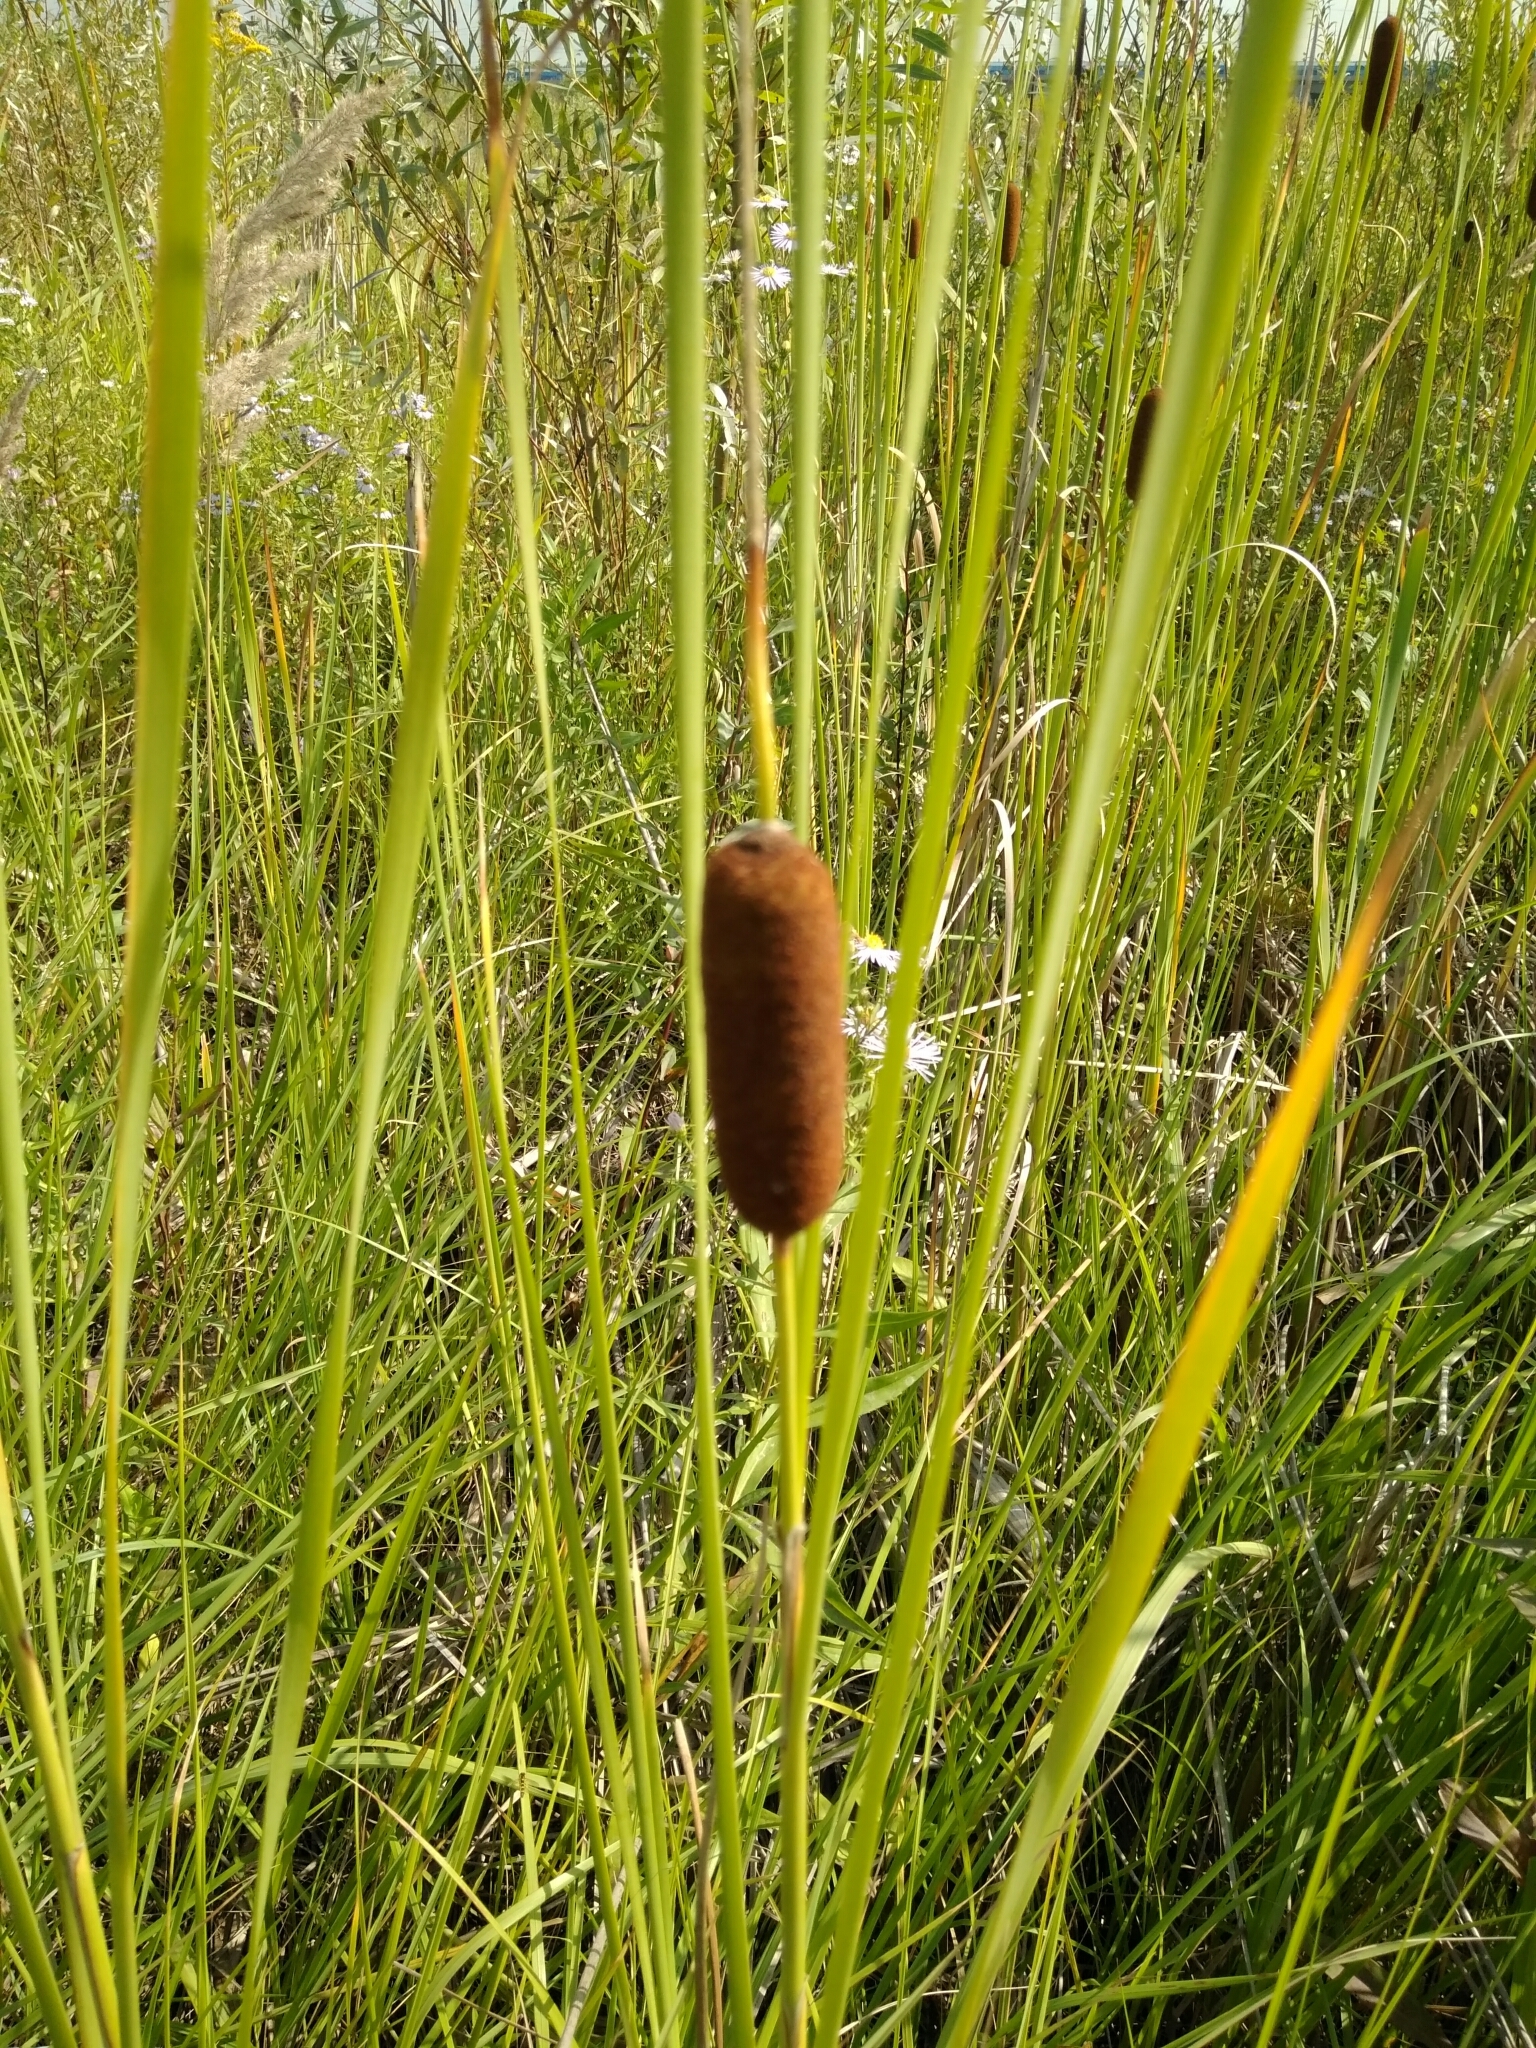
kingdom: Plantae
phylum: Tracheophyta
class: Liliopsida
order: Poales
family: Typhaceae
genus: Typha
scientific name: Typha laxmannii
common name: Laxman’s bulrush
